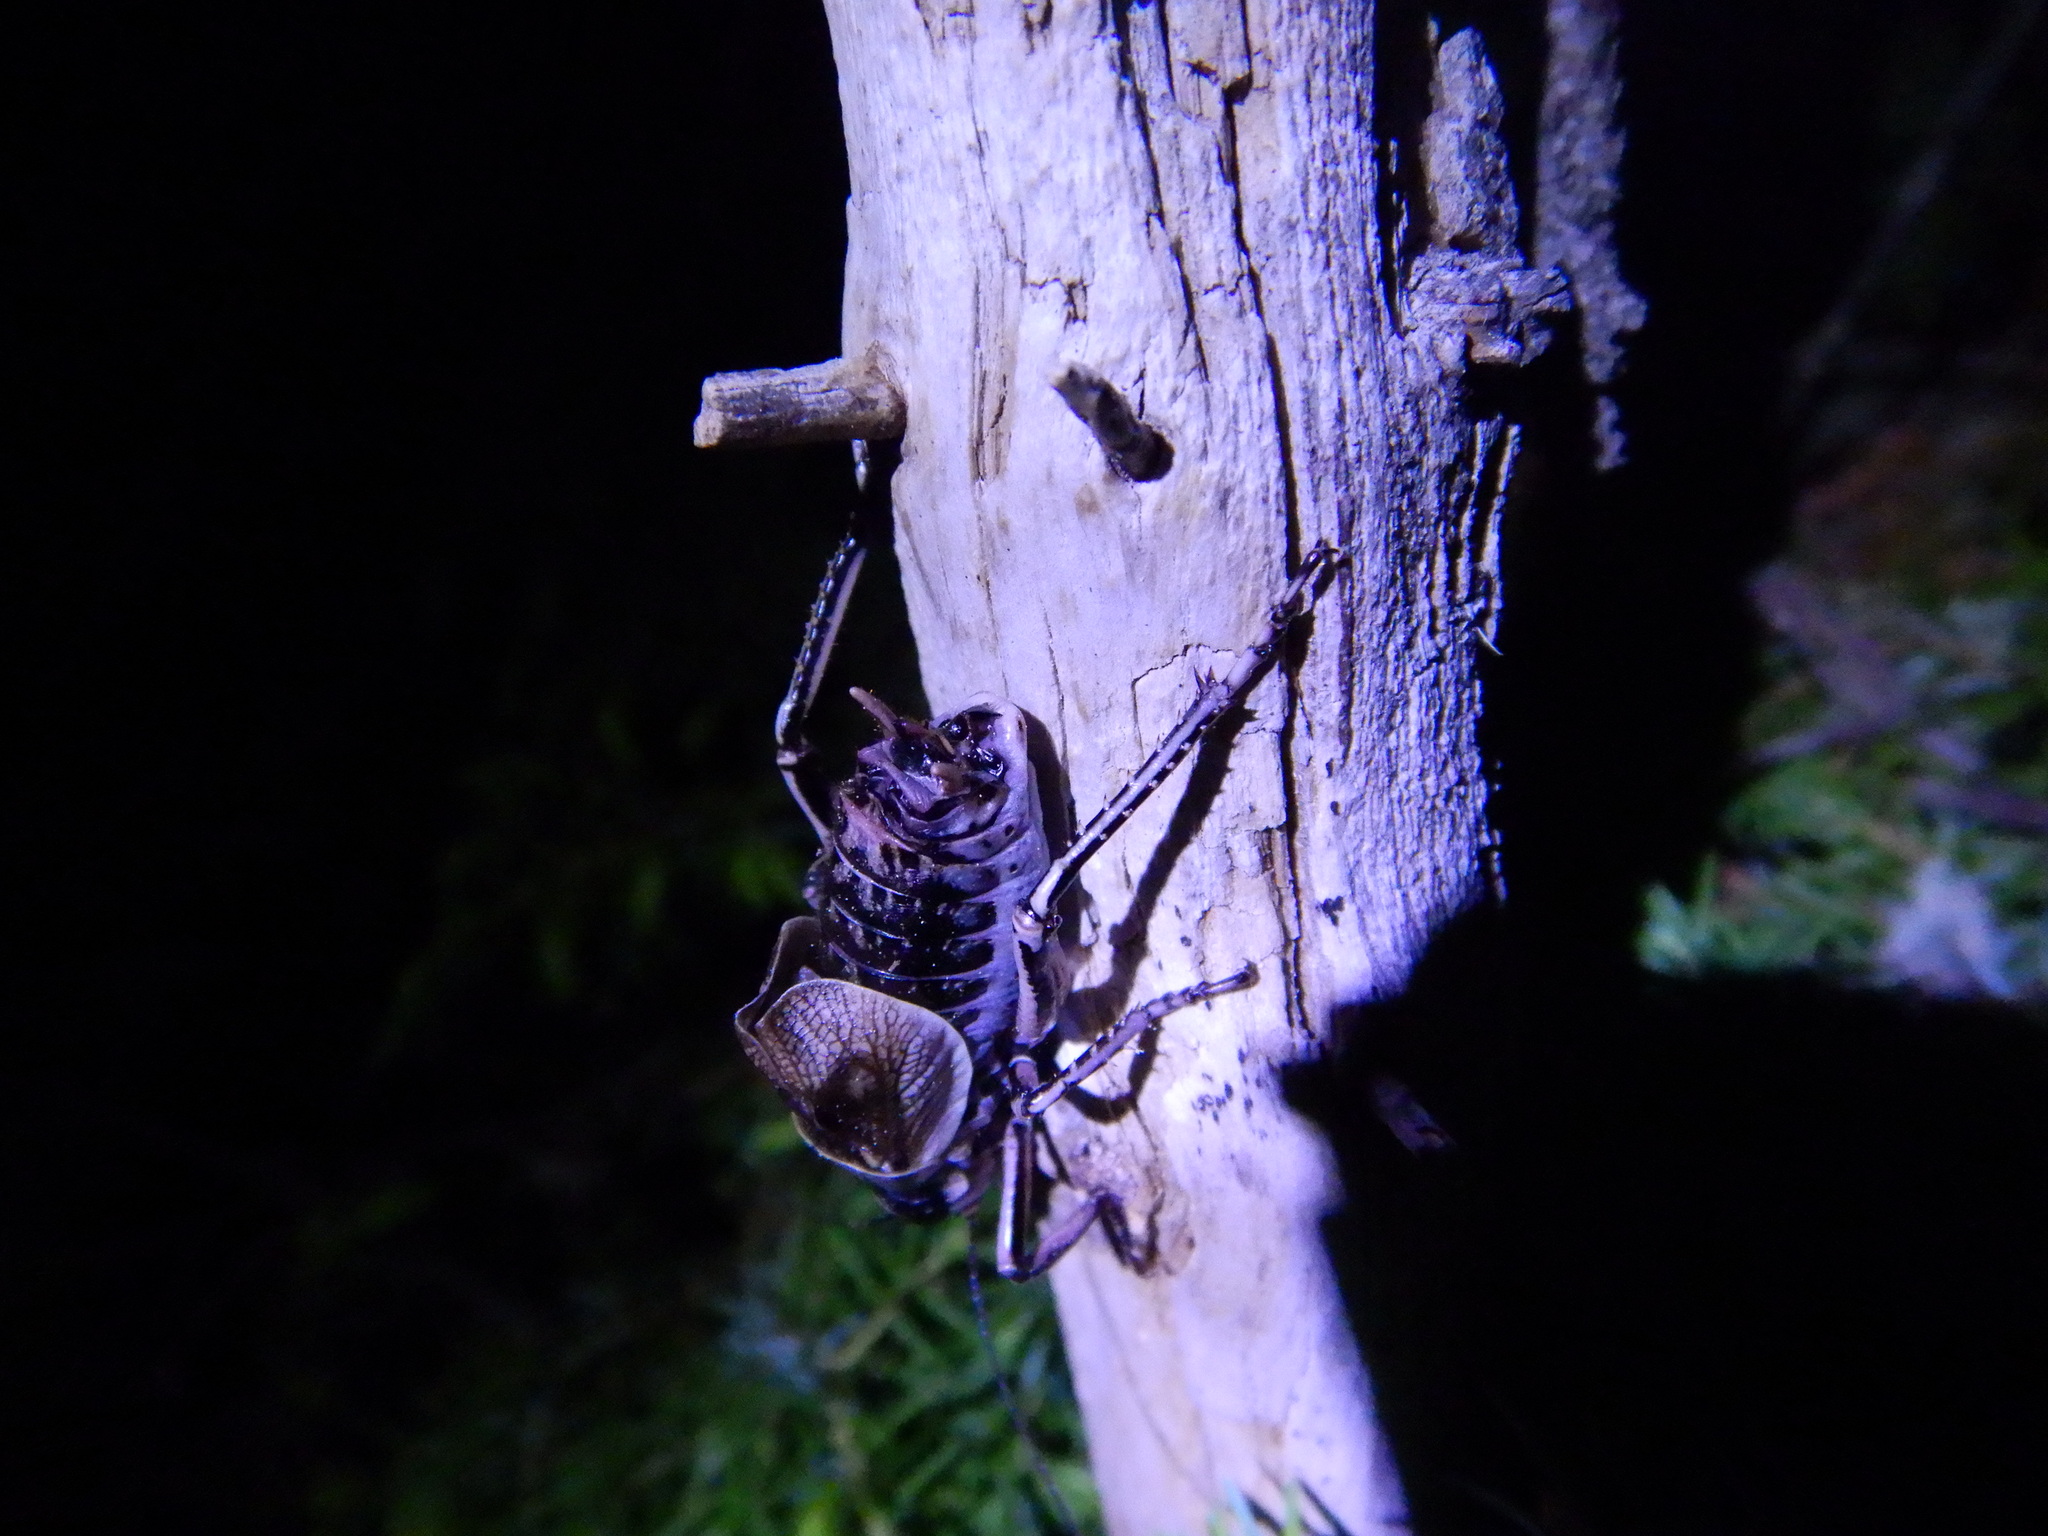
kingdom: Animalia
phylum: Arthropoda
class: Insecta
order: Orthoptera
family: Prophalangopsidae
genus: Cyphoderris
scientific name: Cyphoderris monstrosa
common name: Great grig
